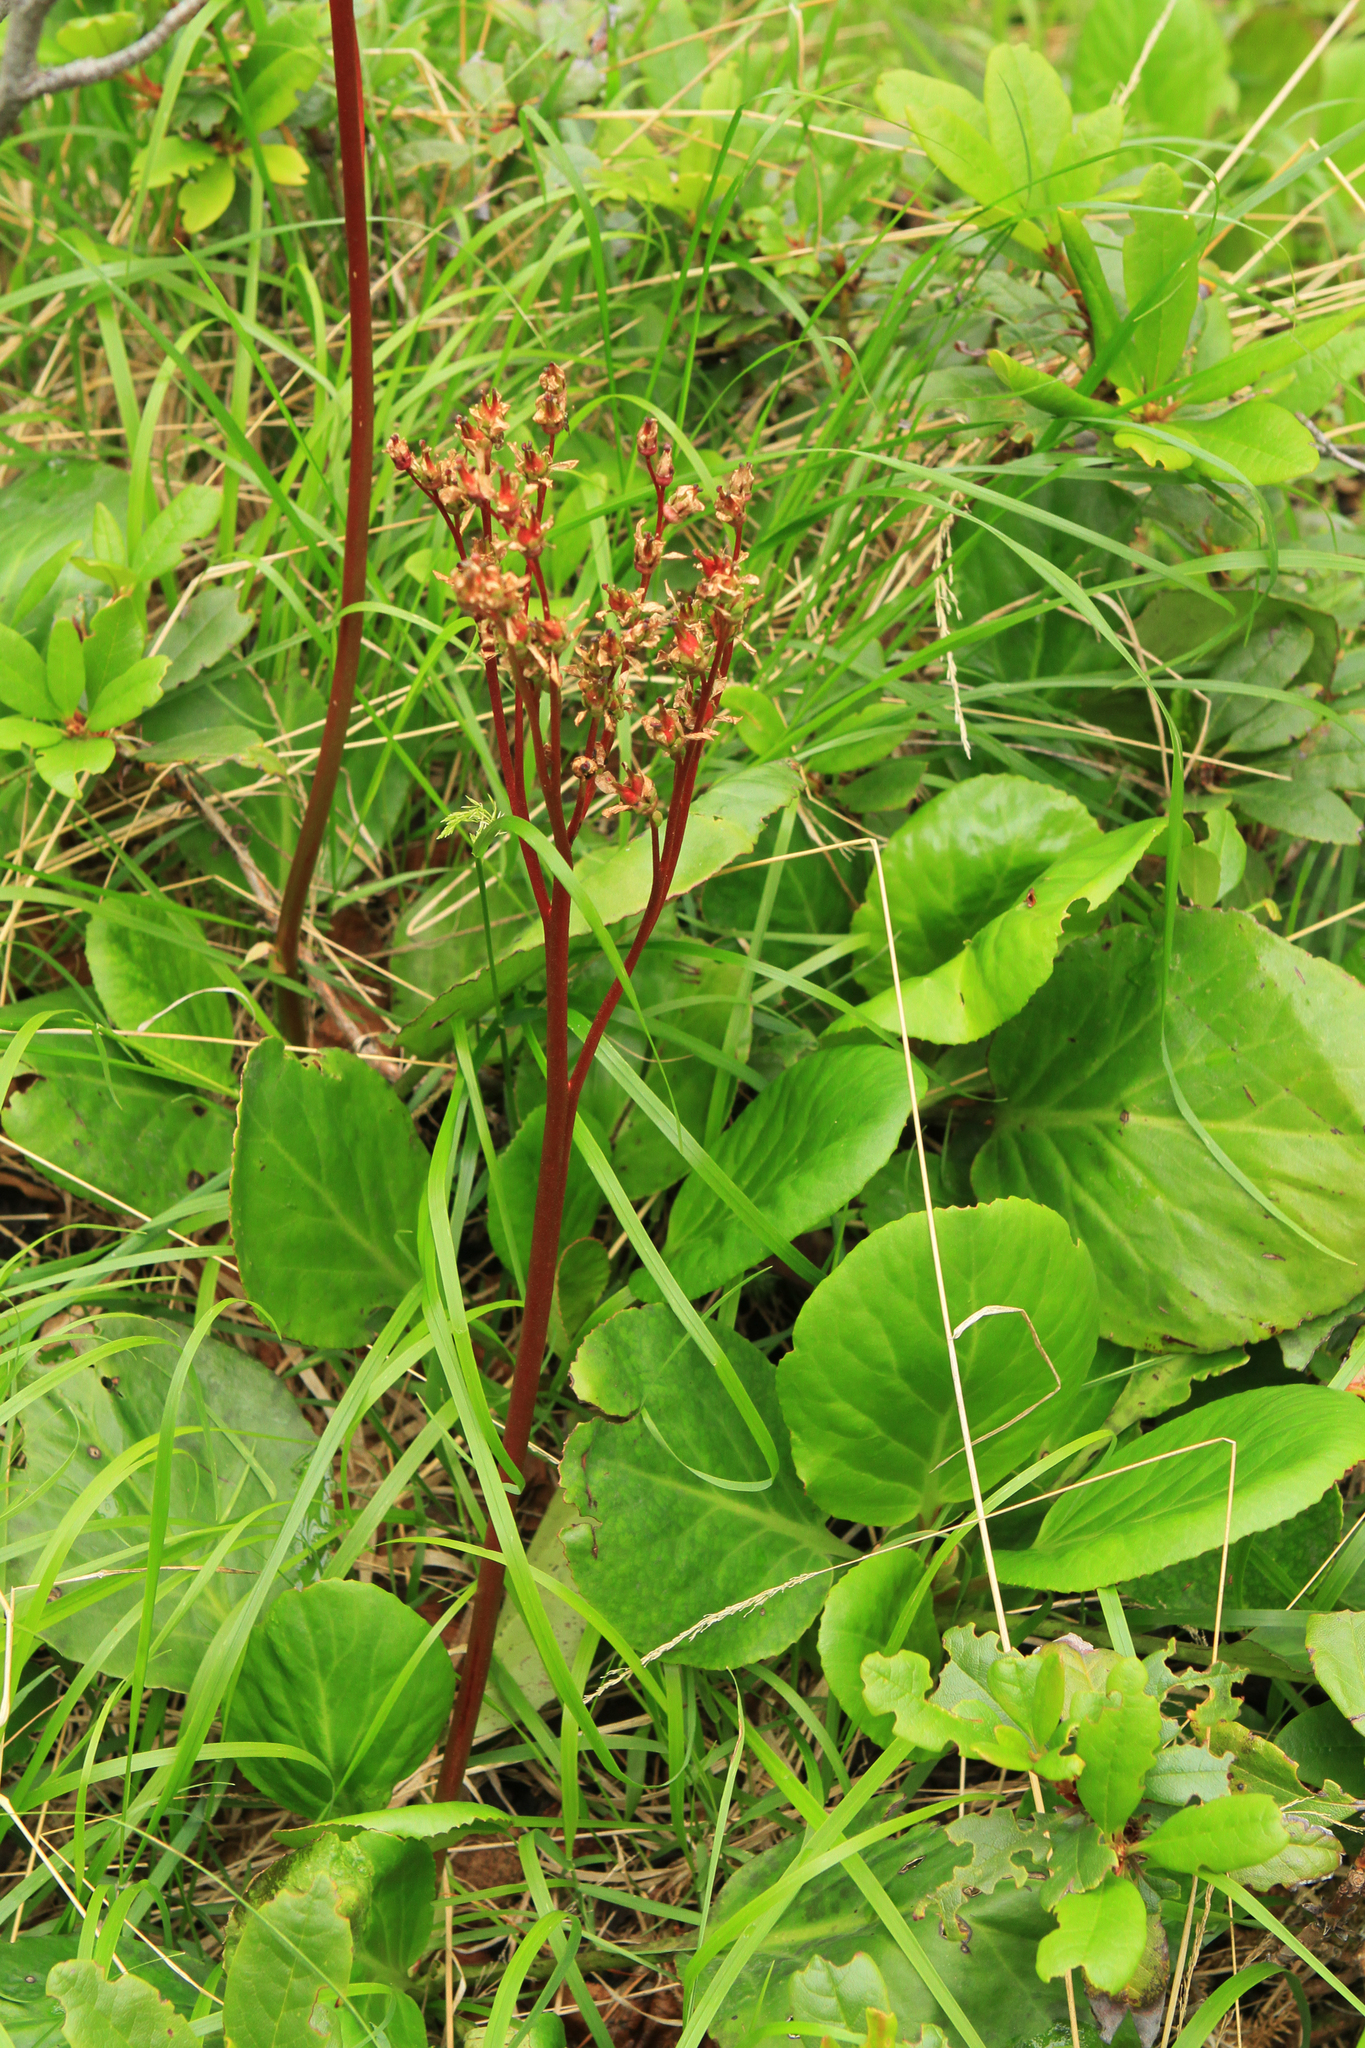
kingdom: Plantae
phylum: Tracheophyta
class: Magnoliopsida
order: Saxifragales
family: Saxifragaceae
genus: Bergenia
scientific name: Bergenia crassifolia
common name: Elephant-ears
